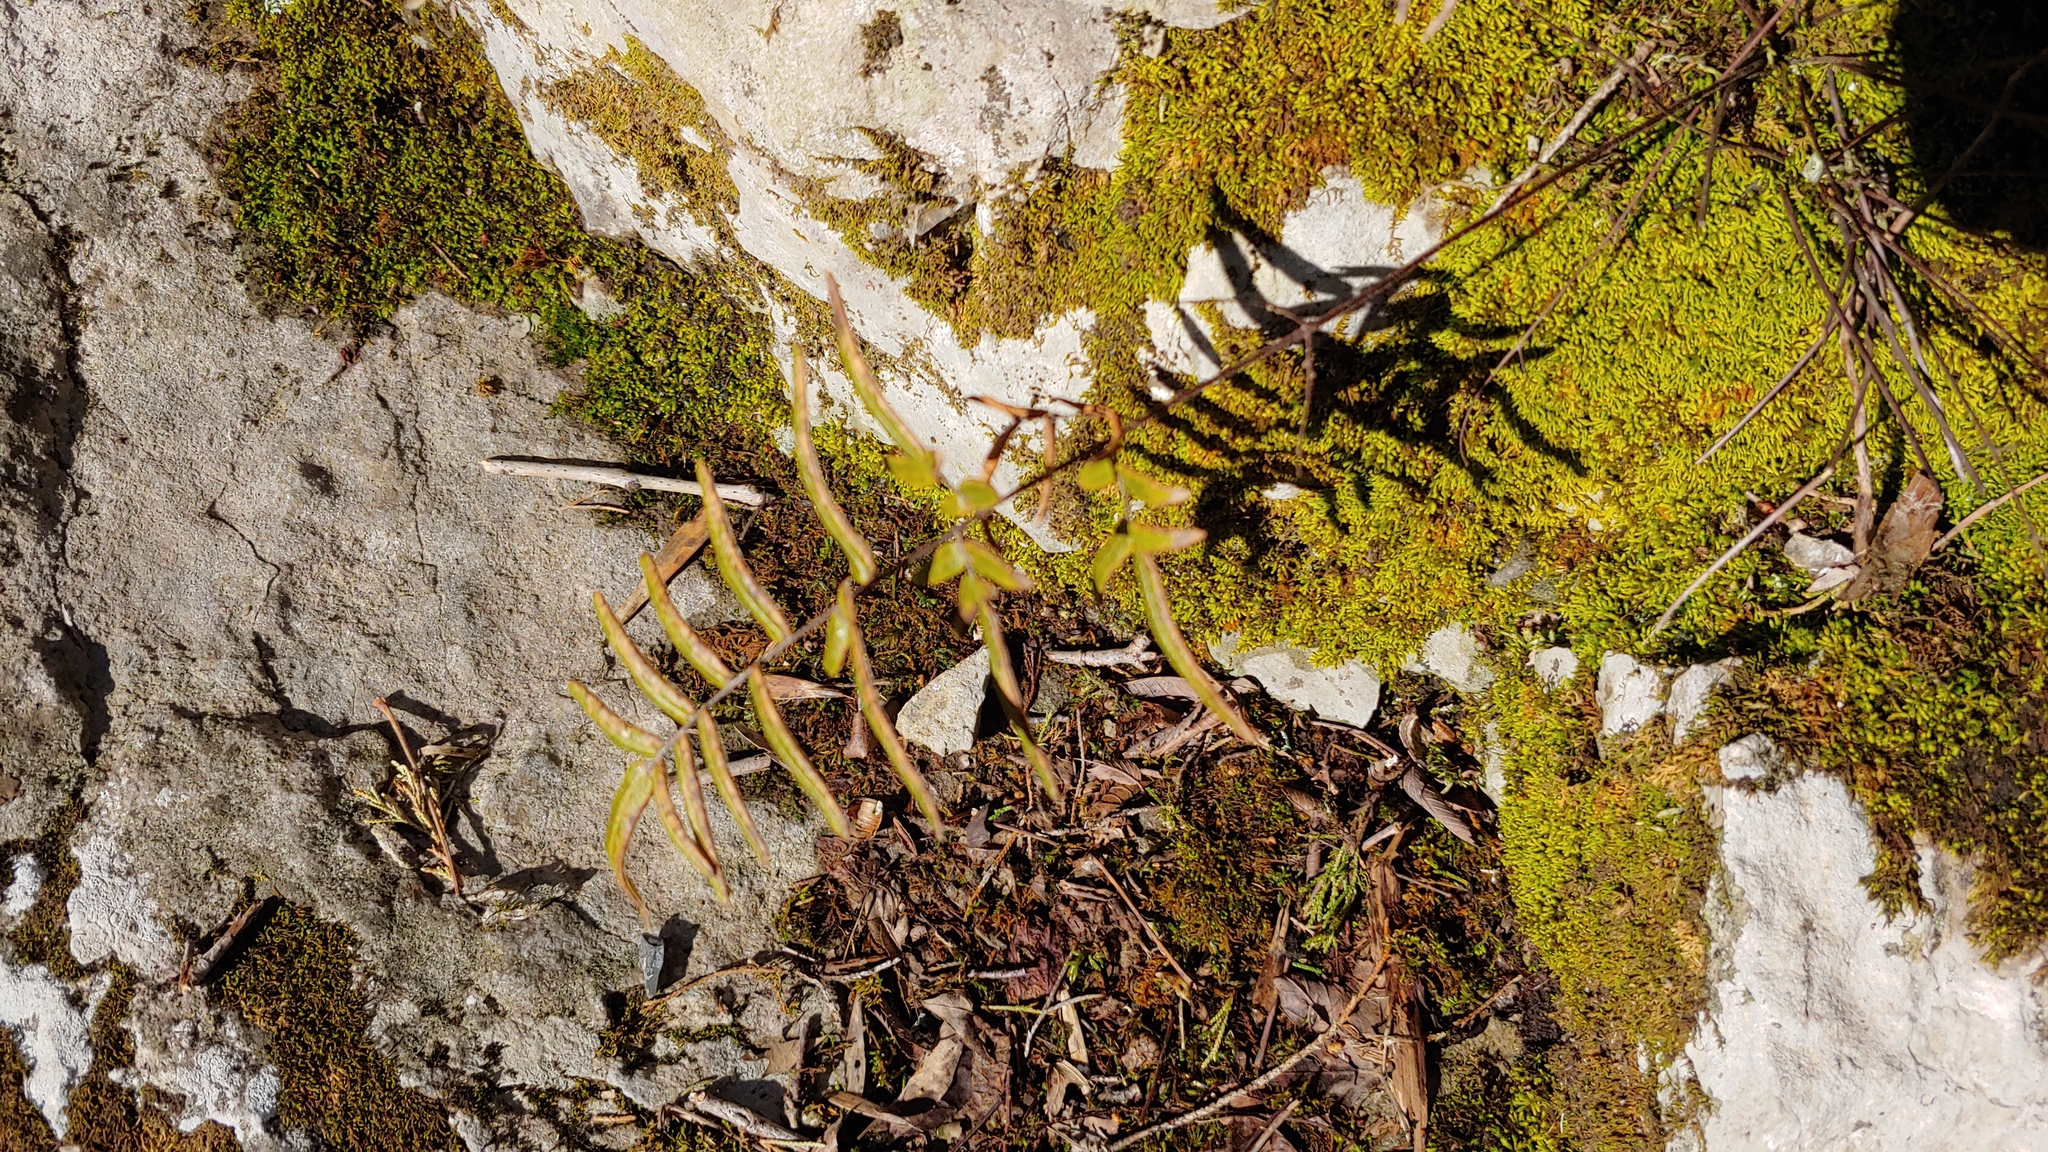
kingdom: Plantae
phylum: Tracheophyta
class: Polypodiopsida
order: Polypodiales
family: Pteridaceae
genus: Pellaea
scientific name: Pellaea atropurpurea
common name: Hairy cliffbrake
